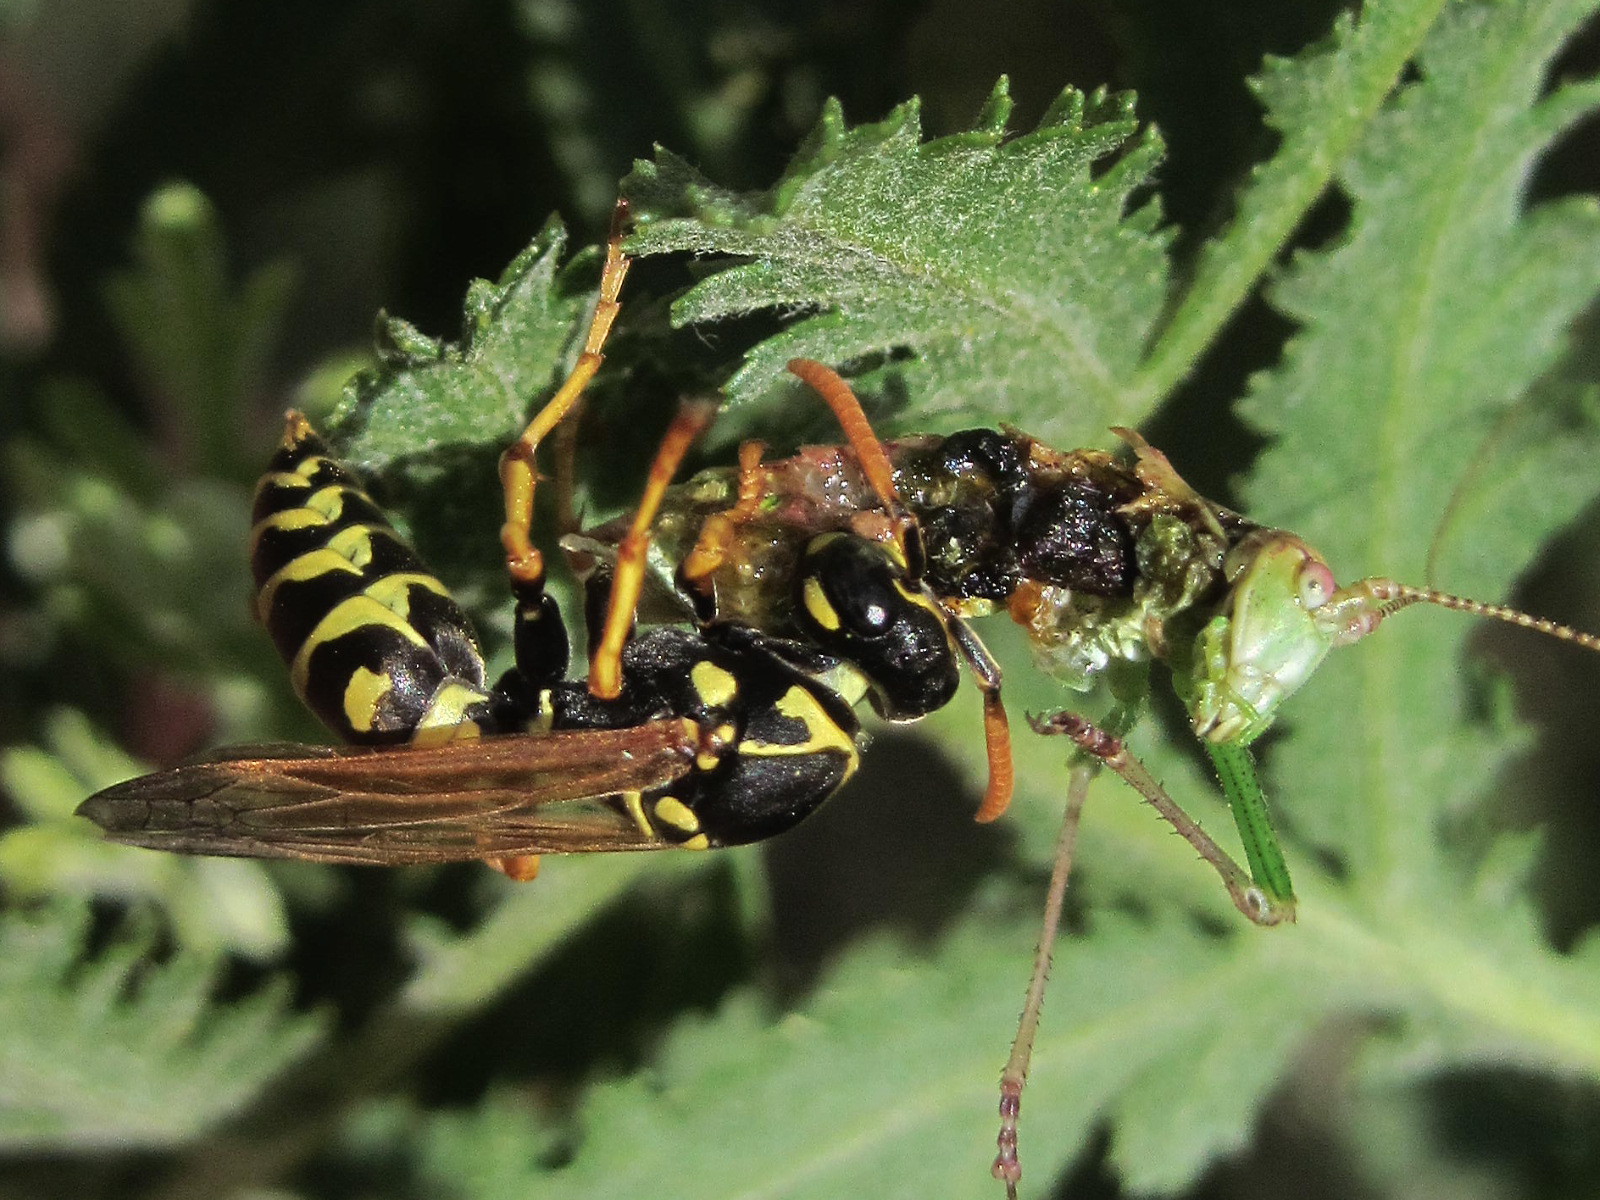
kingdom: Animalia
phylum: Arthropoda
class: Insecta
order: Hymenoptera
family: Eumenidae
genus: Polistes
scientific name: Polistes dominula
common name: Paper wasp
